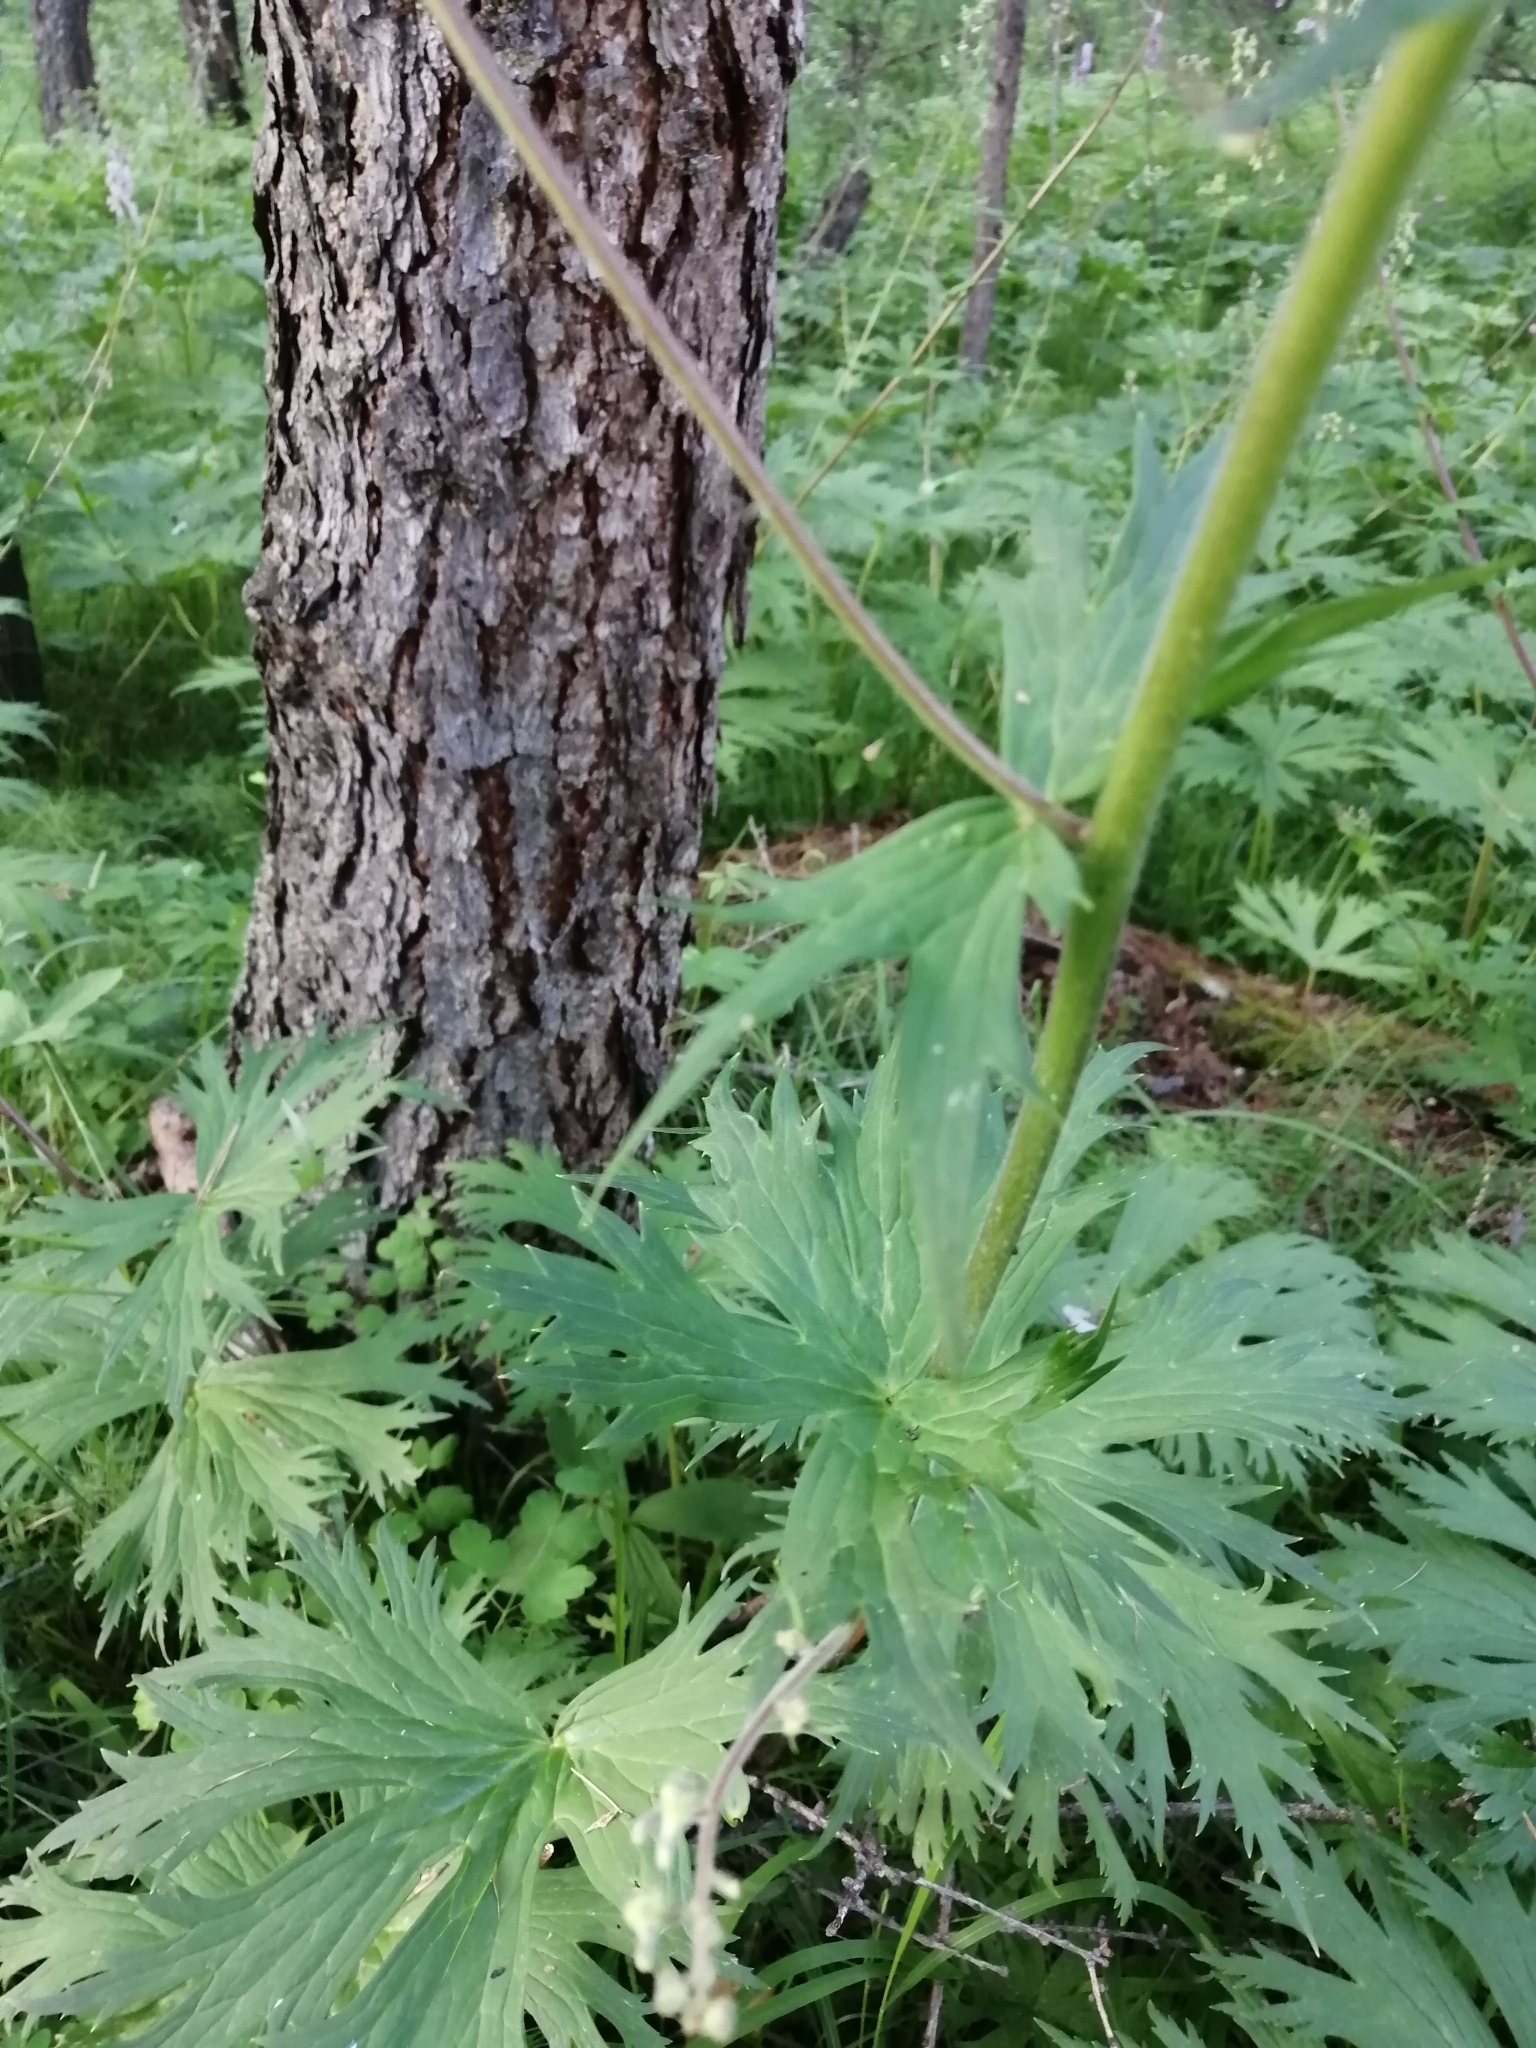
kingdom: Plantae
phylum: Tracheophyta
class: Magnoliopsida
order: Ranunculales
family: Ranunculaceae
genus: Aconitum
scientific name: Aconitum septentrionale
